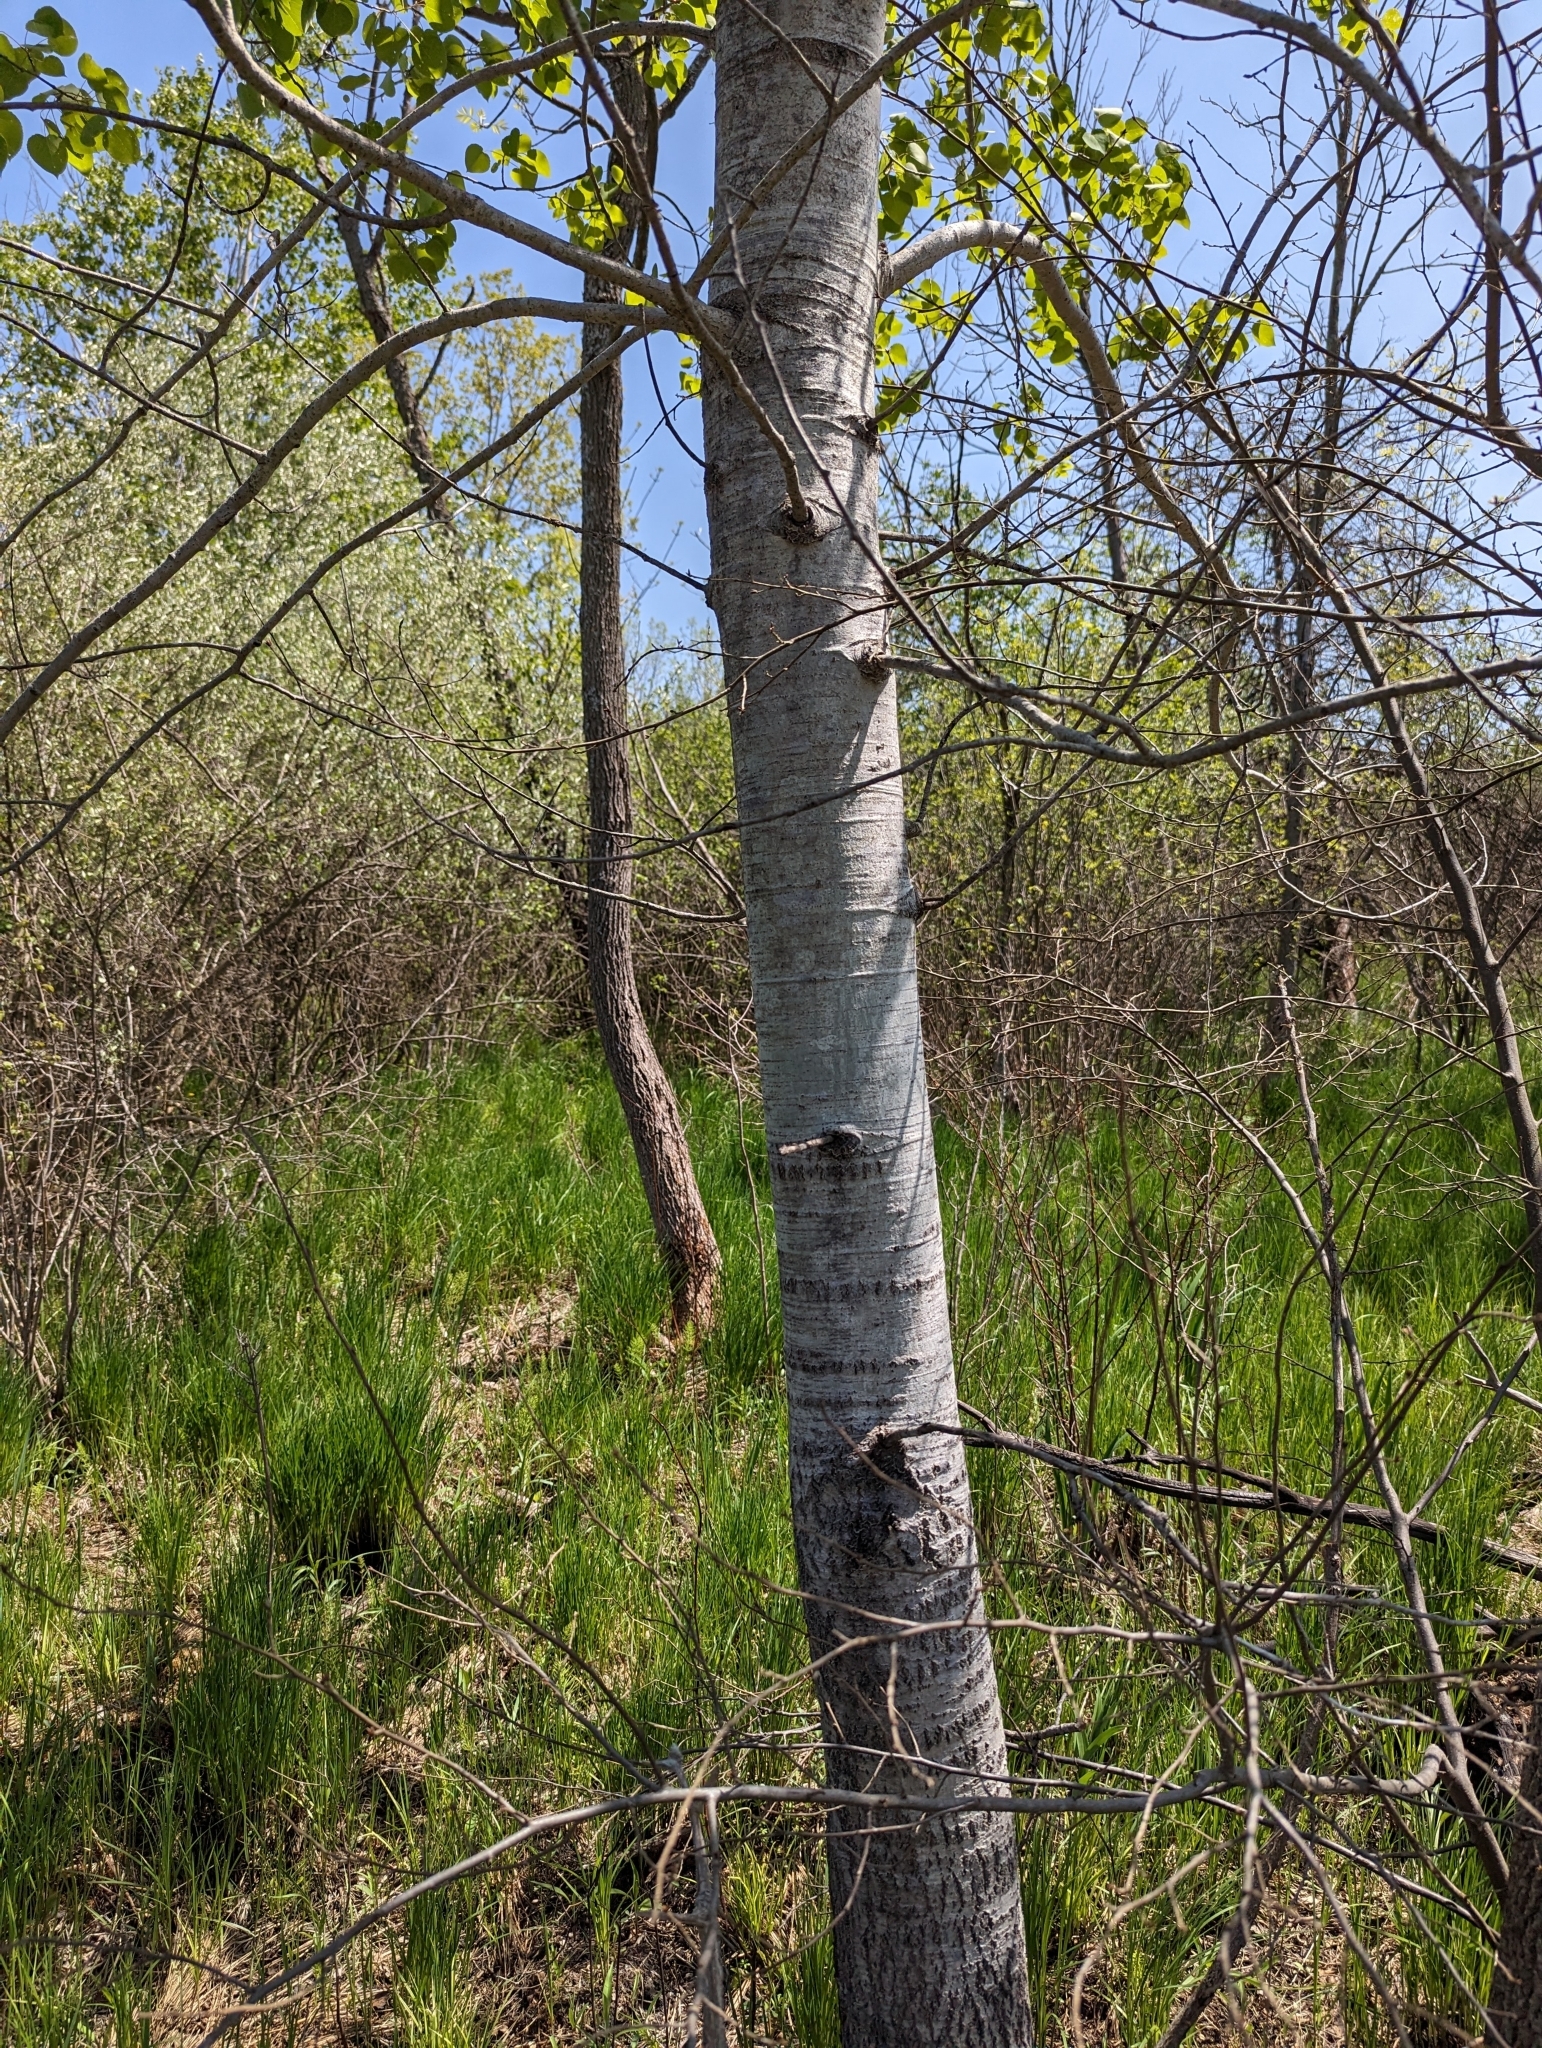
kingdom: Plantae
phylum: Tracheophyta
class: Magnoliopsida
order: Malpighiales
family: Salicaceae
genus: Populus
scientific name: Populus tremuloides
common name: Quaking aspen
